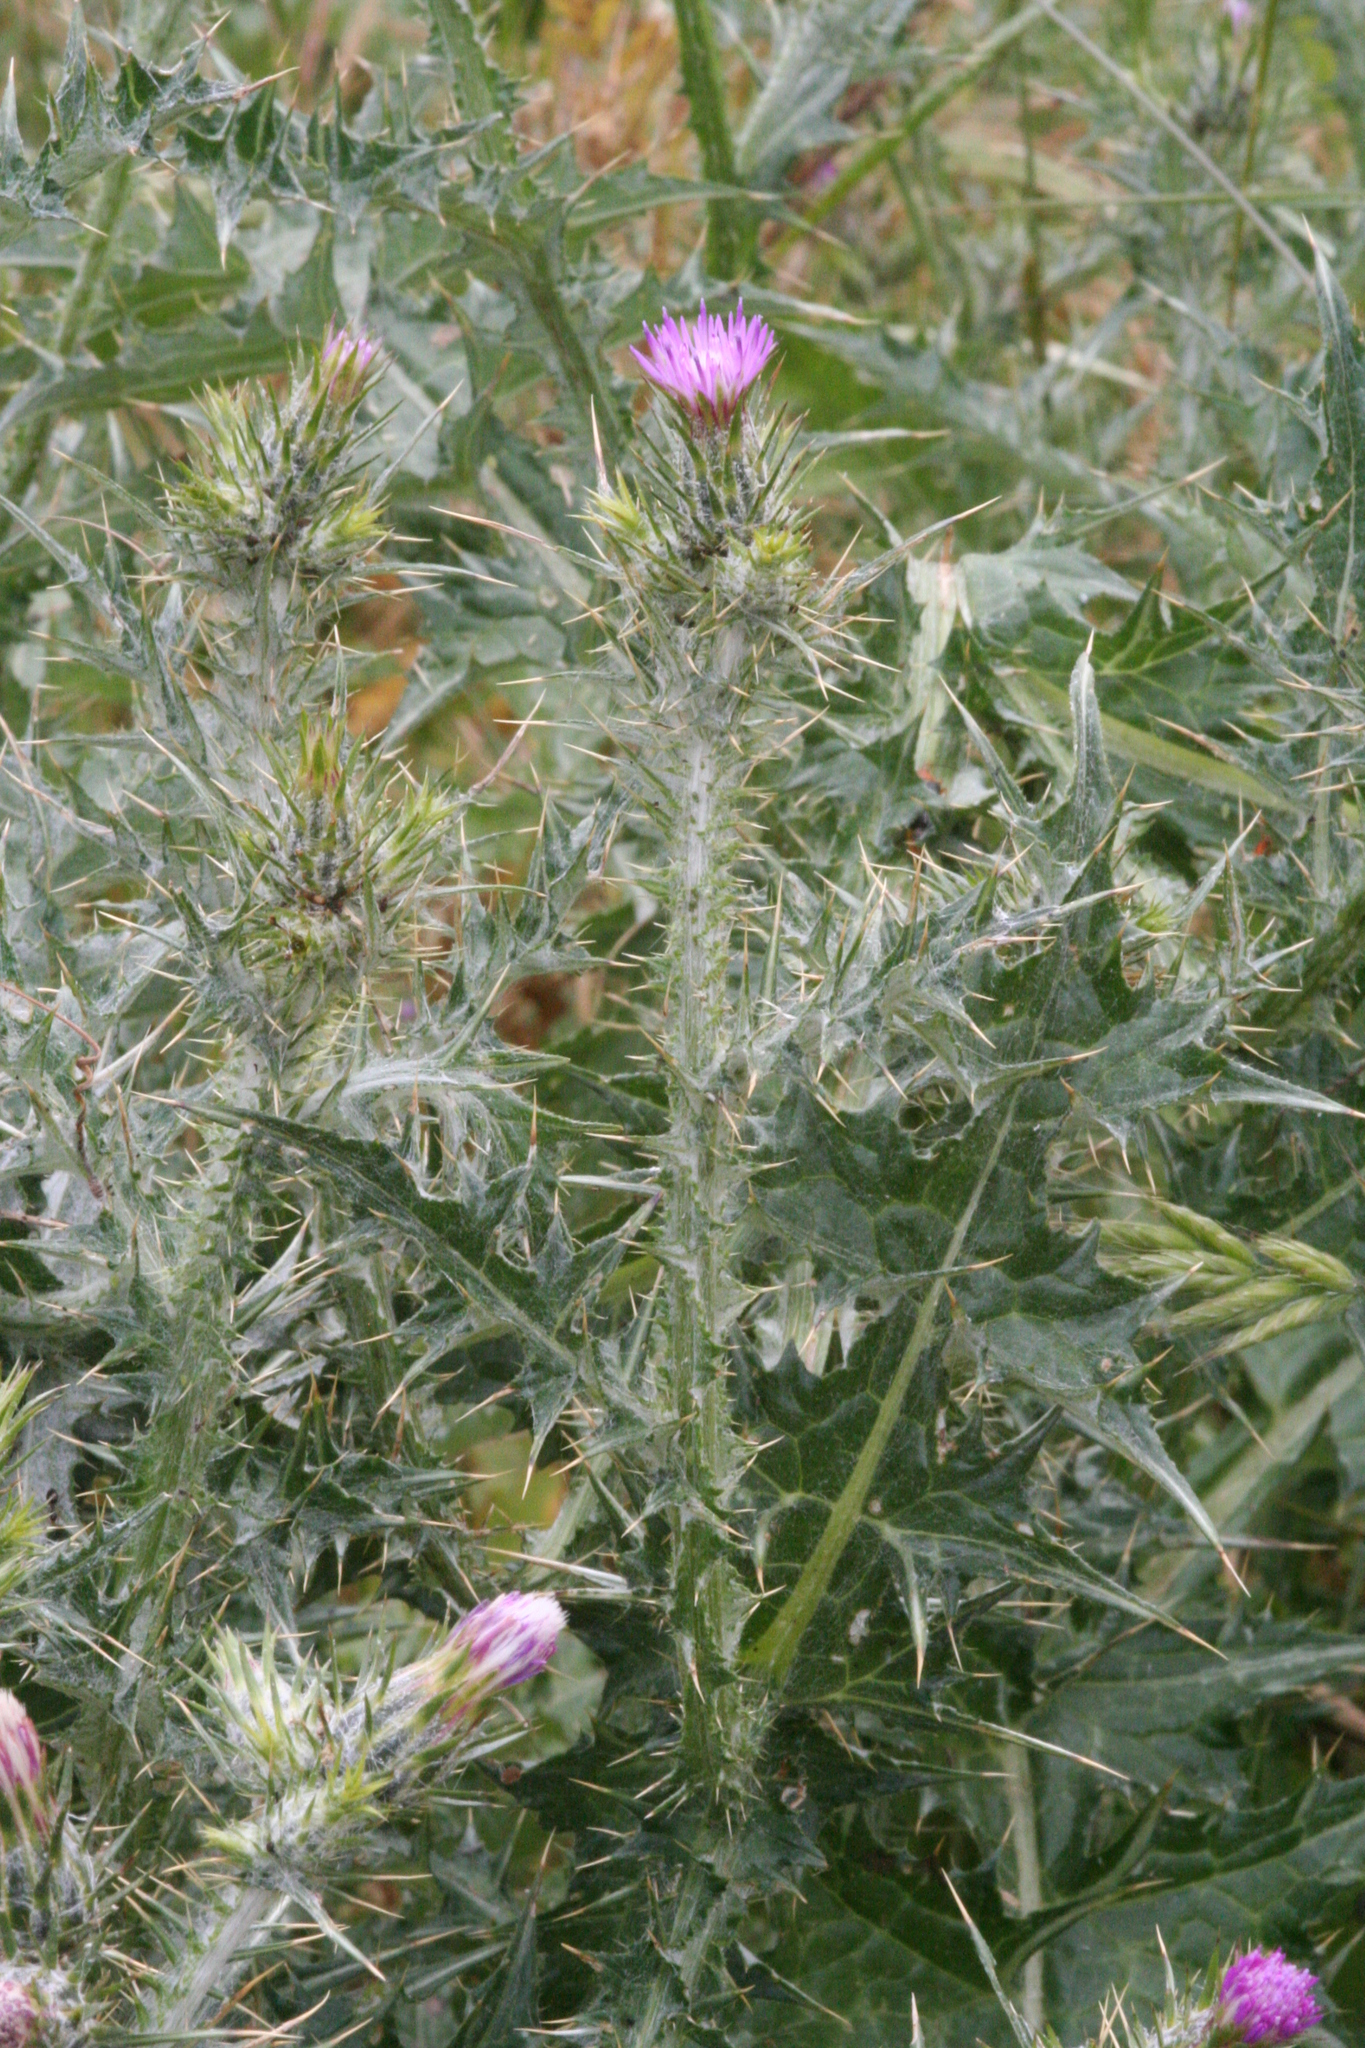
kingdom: Plantae
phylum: Tracheophyta
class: Magnoliopsida
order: Asterales
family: Asteraceae
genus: Carduus
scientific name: Carduus pycnocephalus
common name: Plymouth thistle
